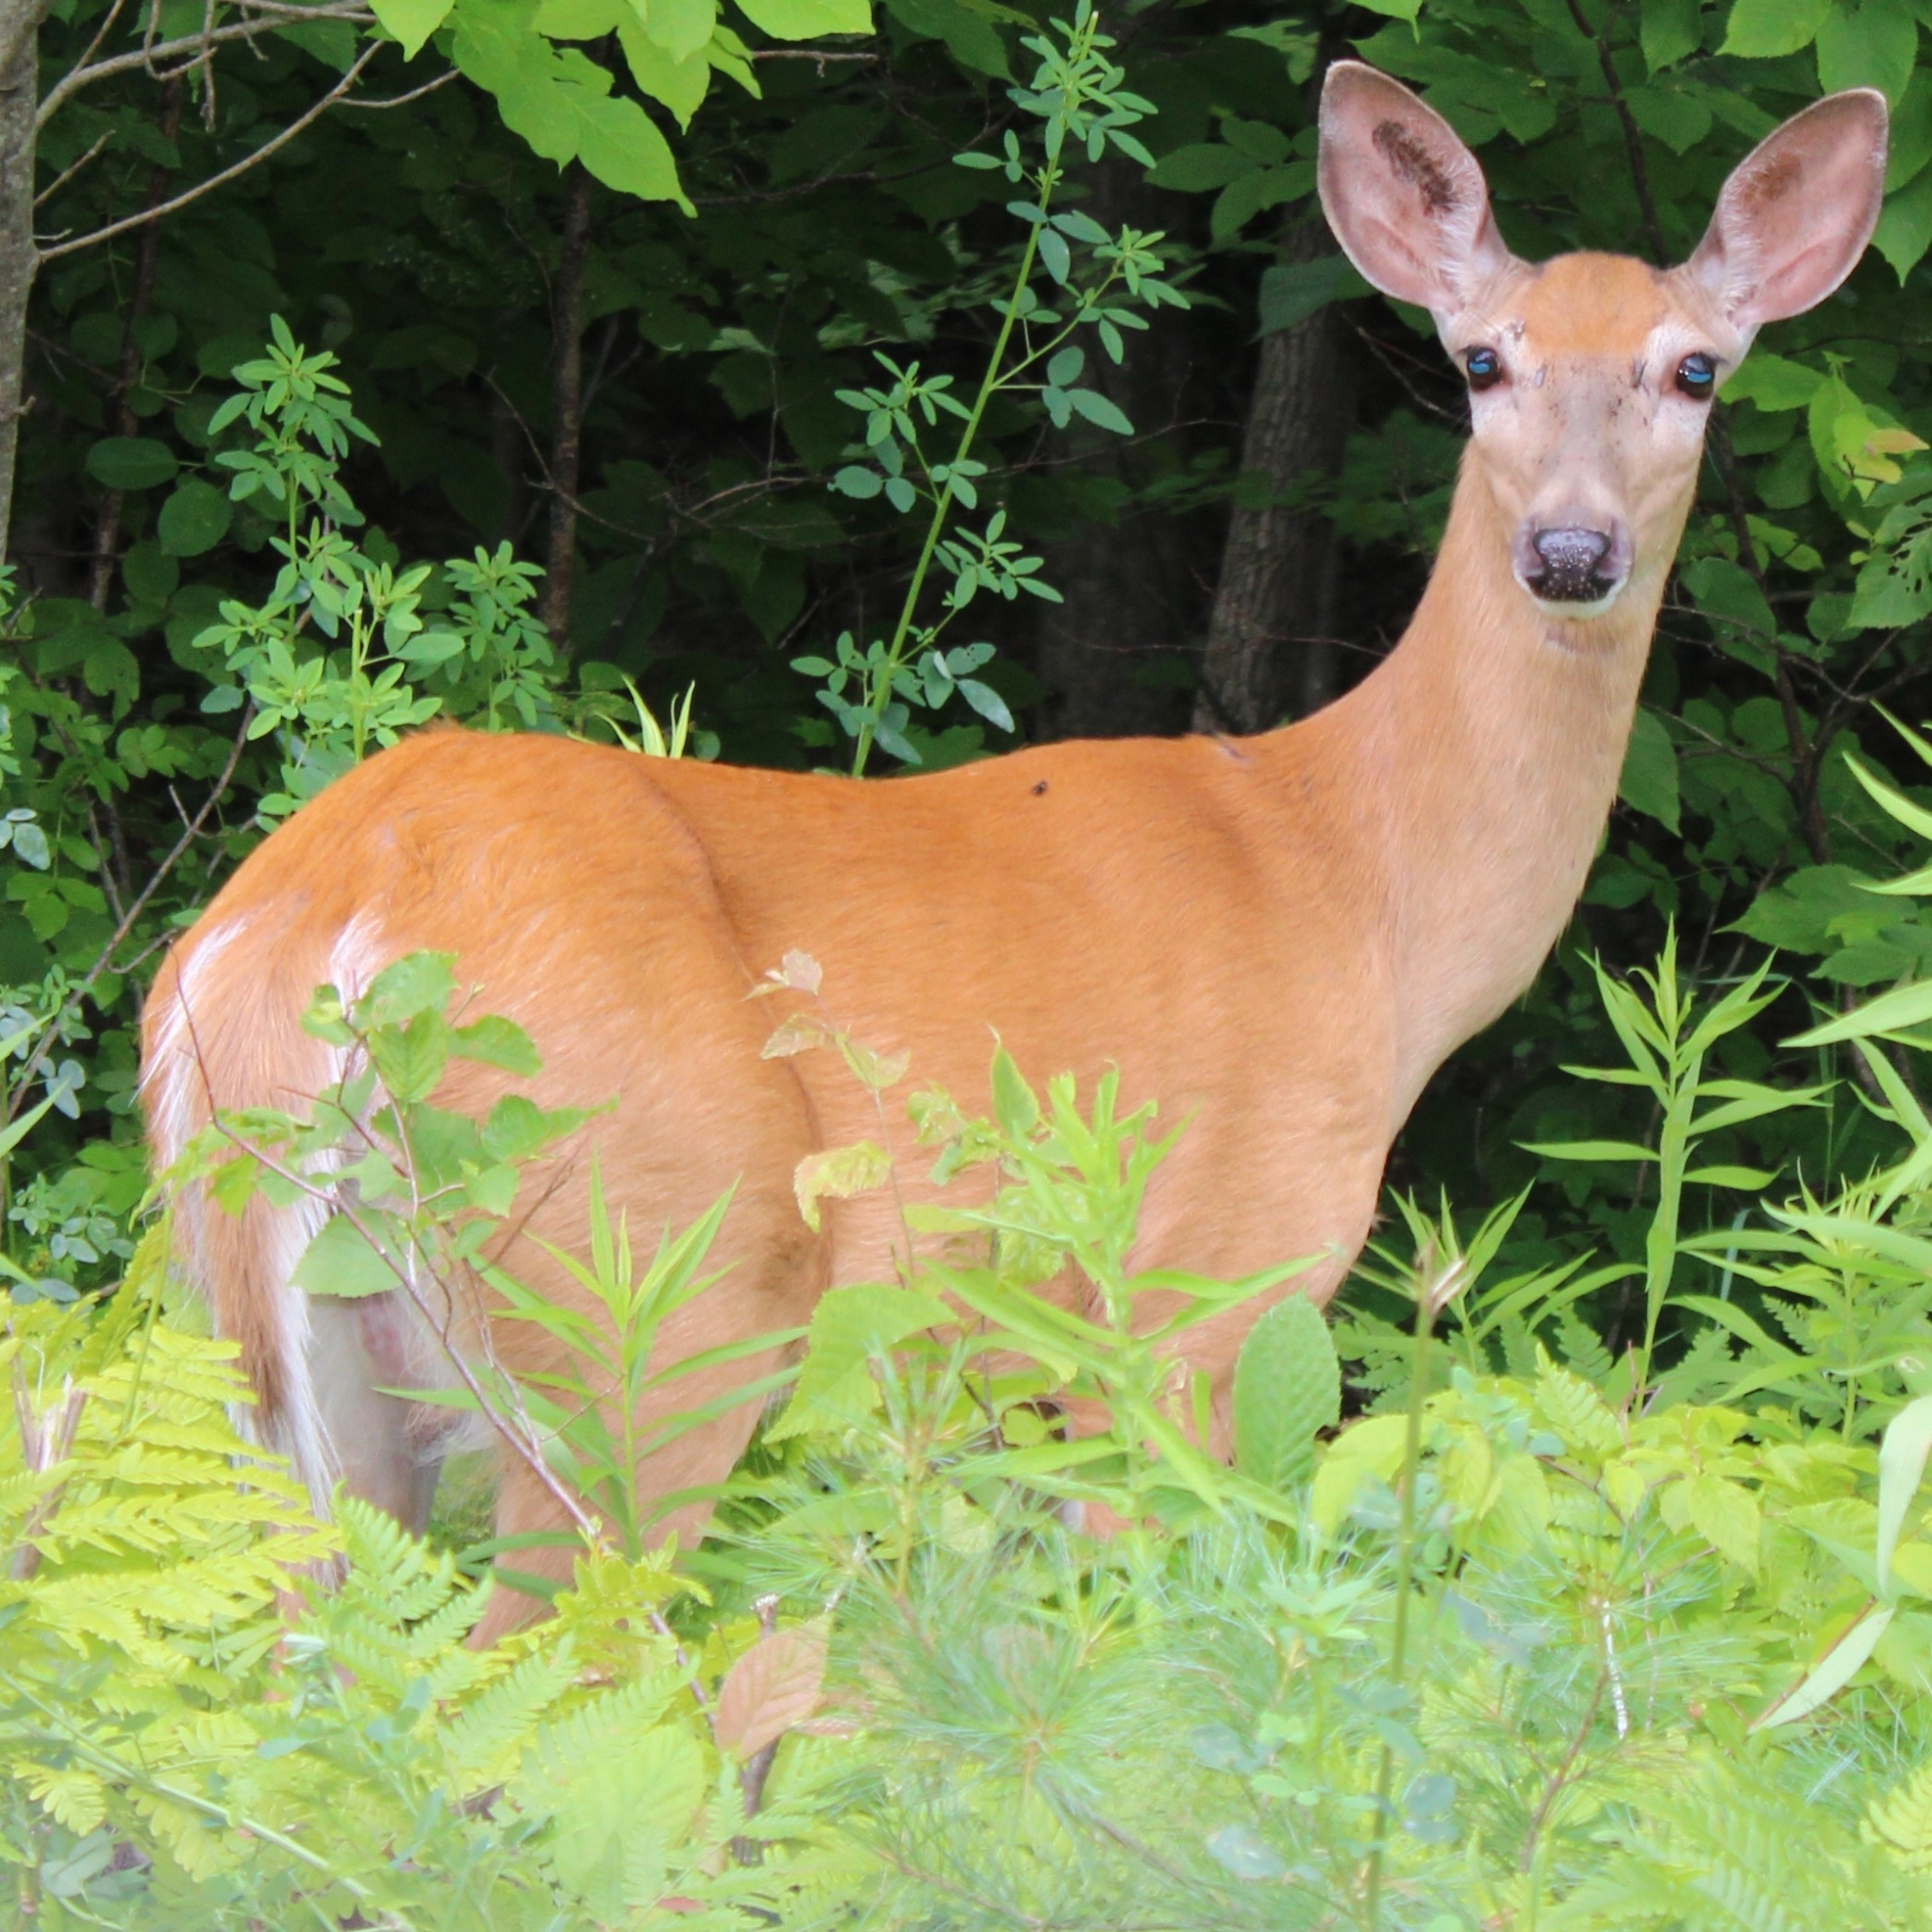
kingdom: Animalia
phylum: Chordata
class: Mammalia
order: Artiodactyla
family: Cervidae
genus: Odocoileus
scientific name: Odocoileus virginianus
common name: White-tailed deer
